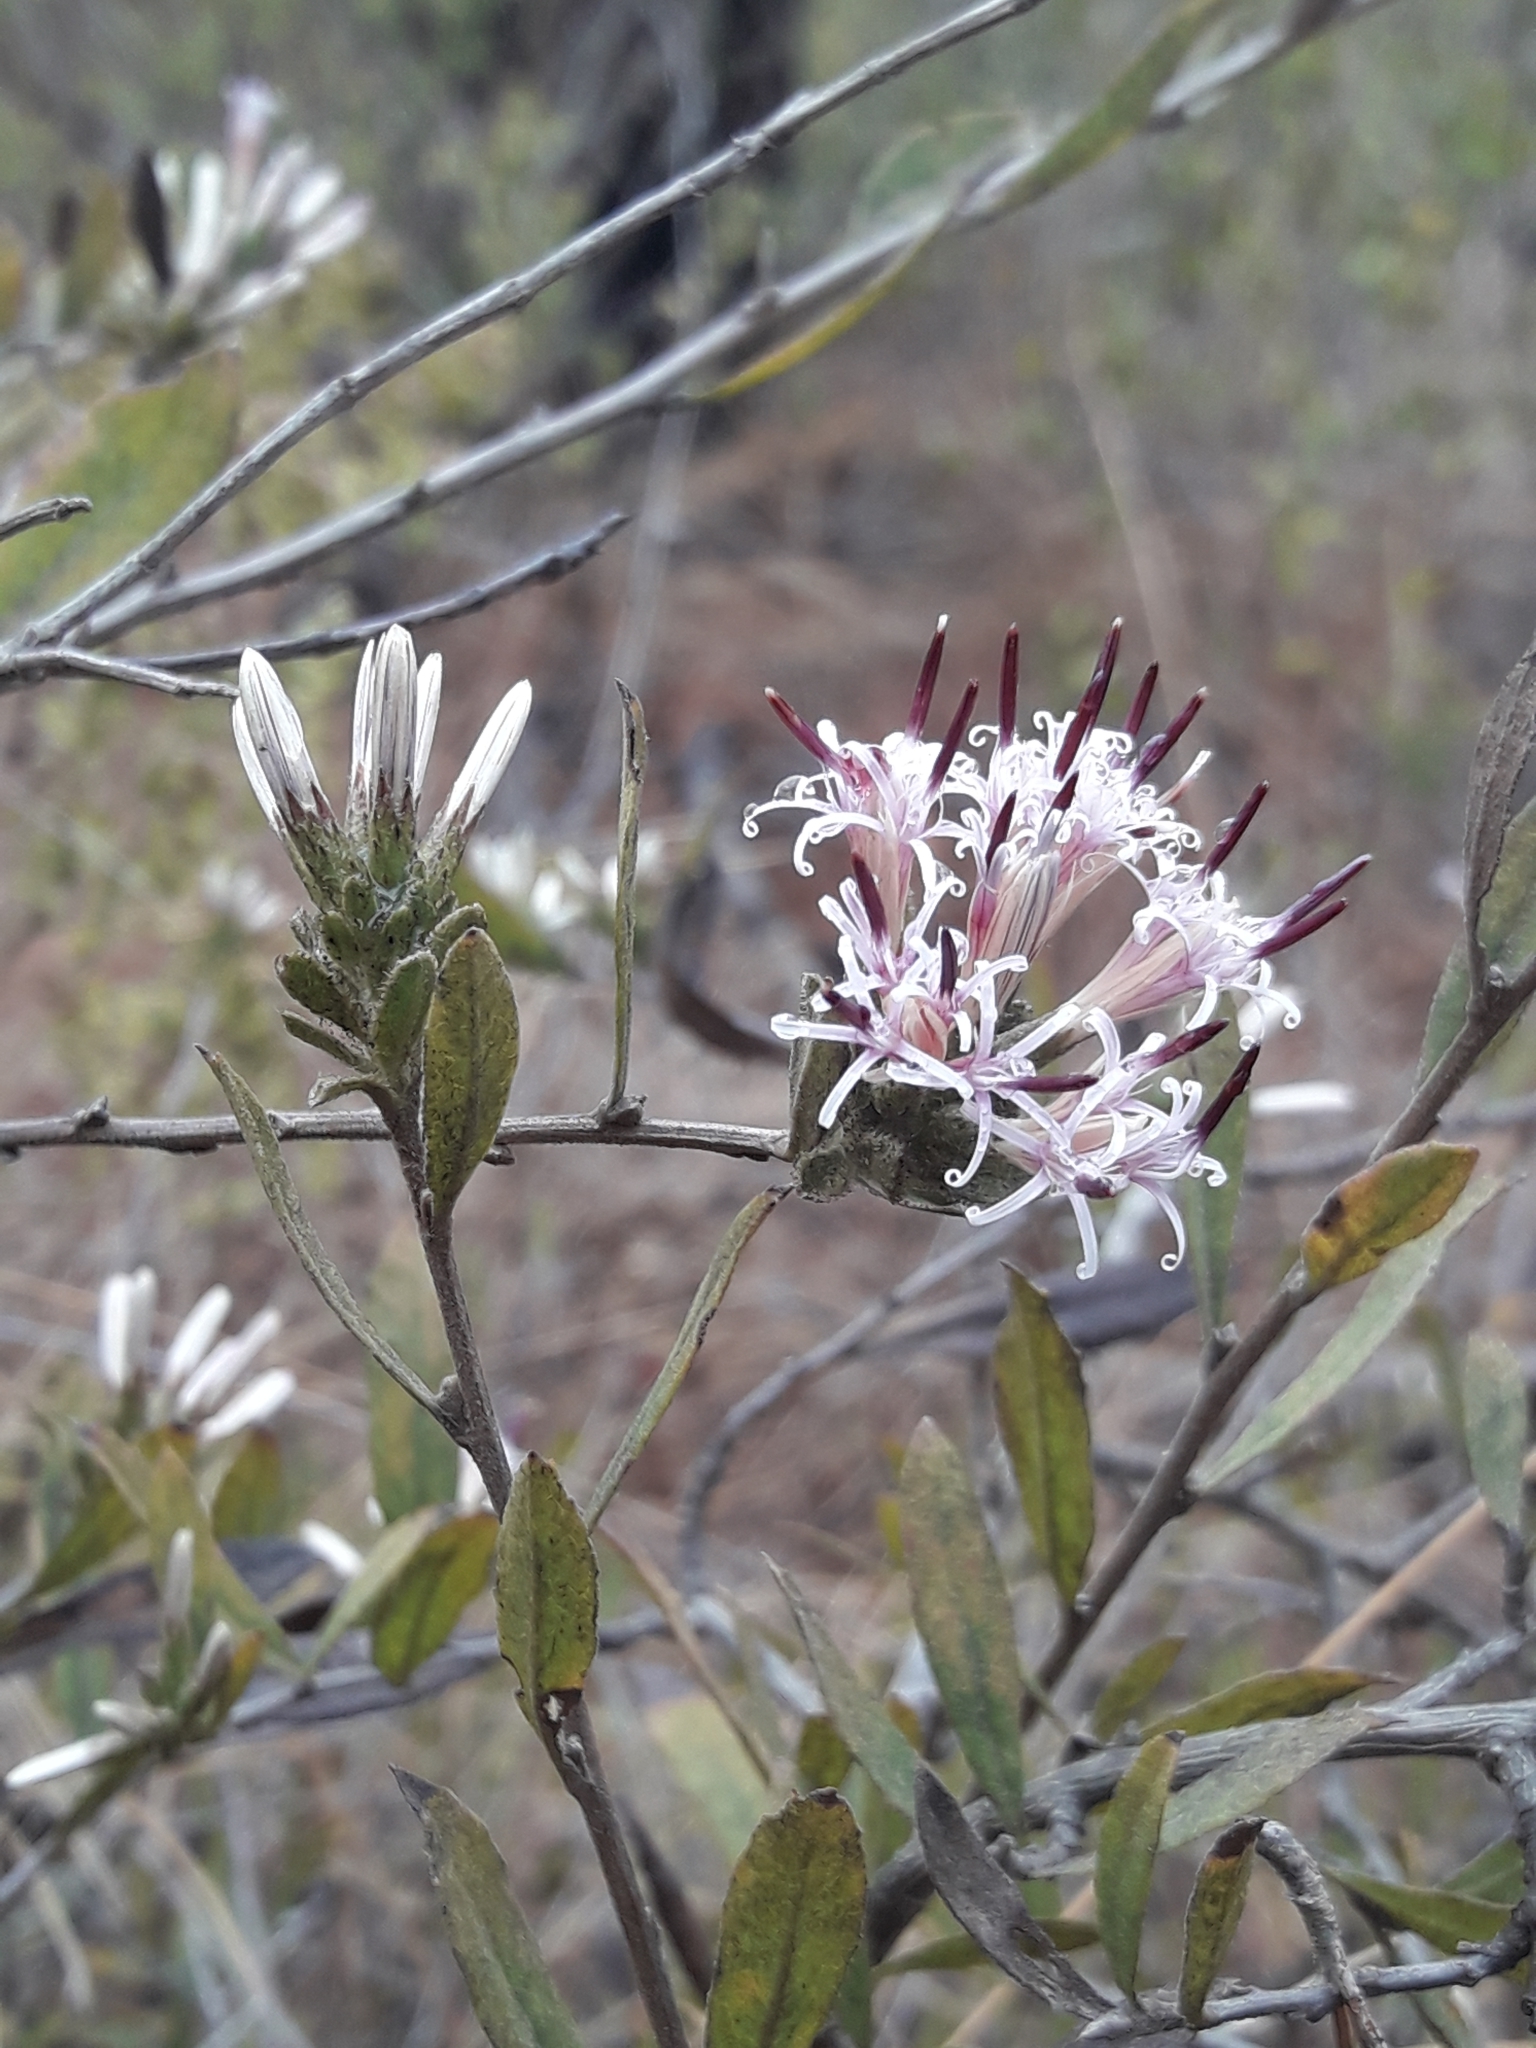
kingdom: Plantae
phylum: Tracheophyta
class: Magnoliopsida
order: Asterales
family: Asteraceae
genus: Gochnatia
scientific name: Gochnatia foliolosa
